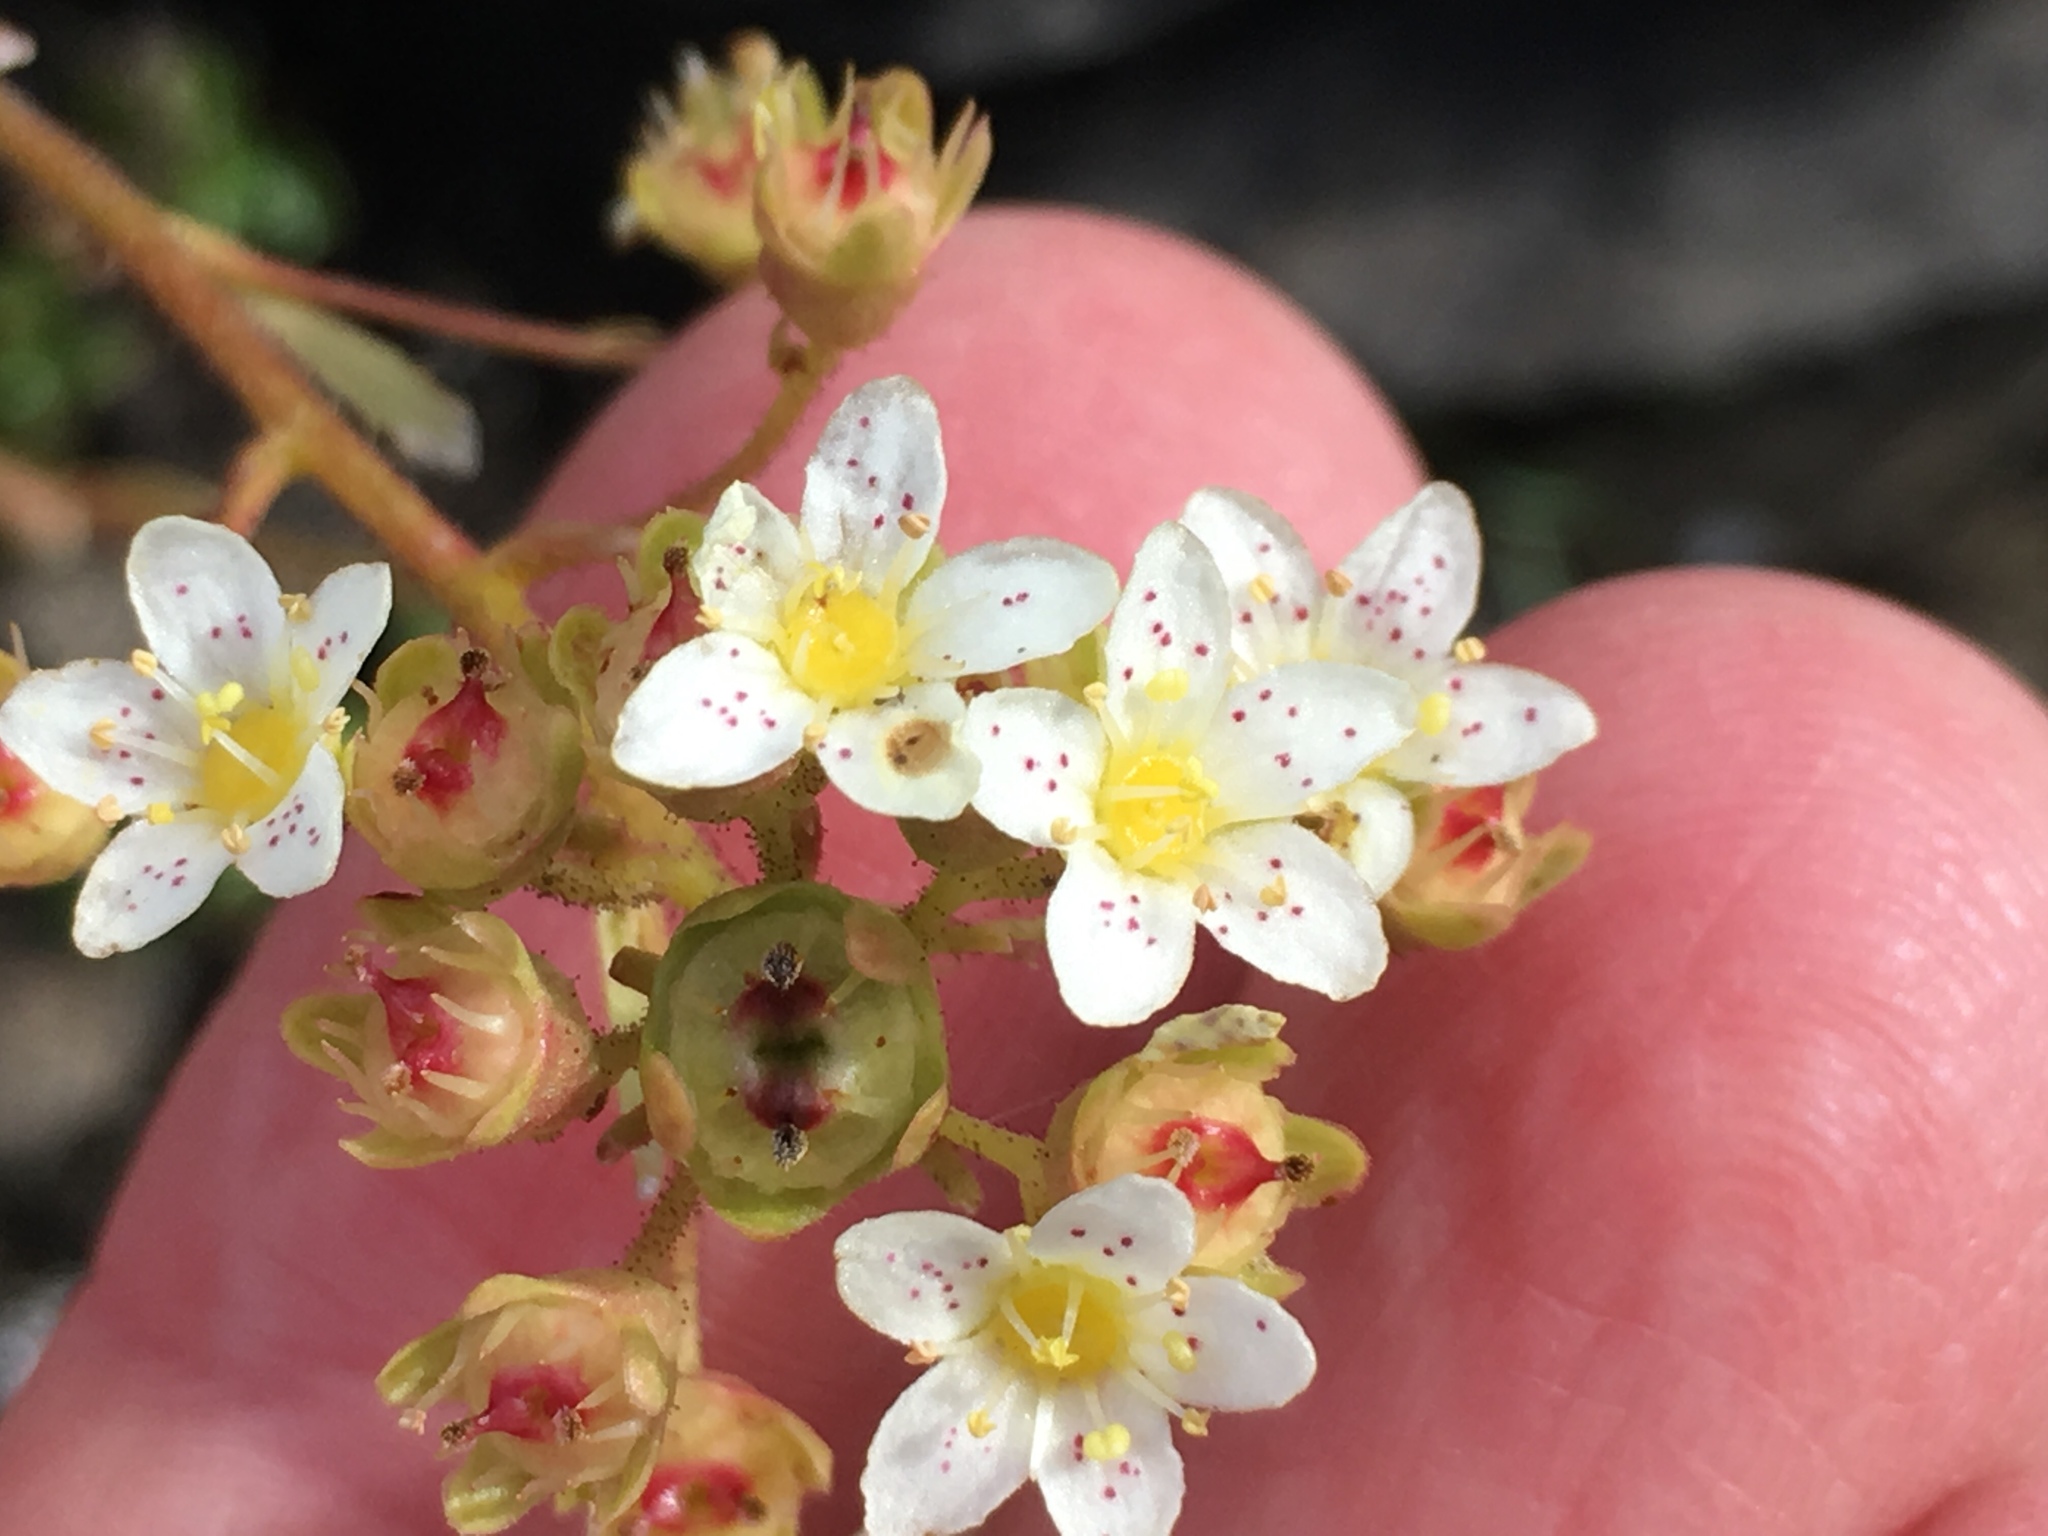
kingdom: Plantae
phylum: Tracheophyta
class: Magnoliopsida
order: Saxifragales
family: Saxifragaceae
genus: Saxifraga
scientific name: Saxifraga paniculata
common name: Livelong saxifrage
